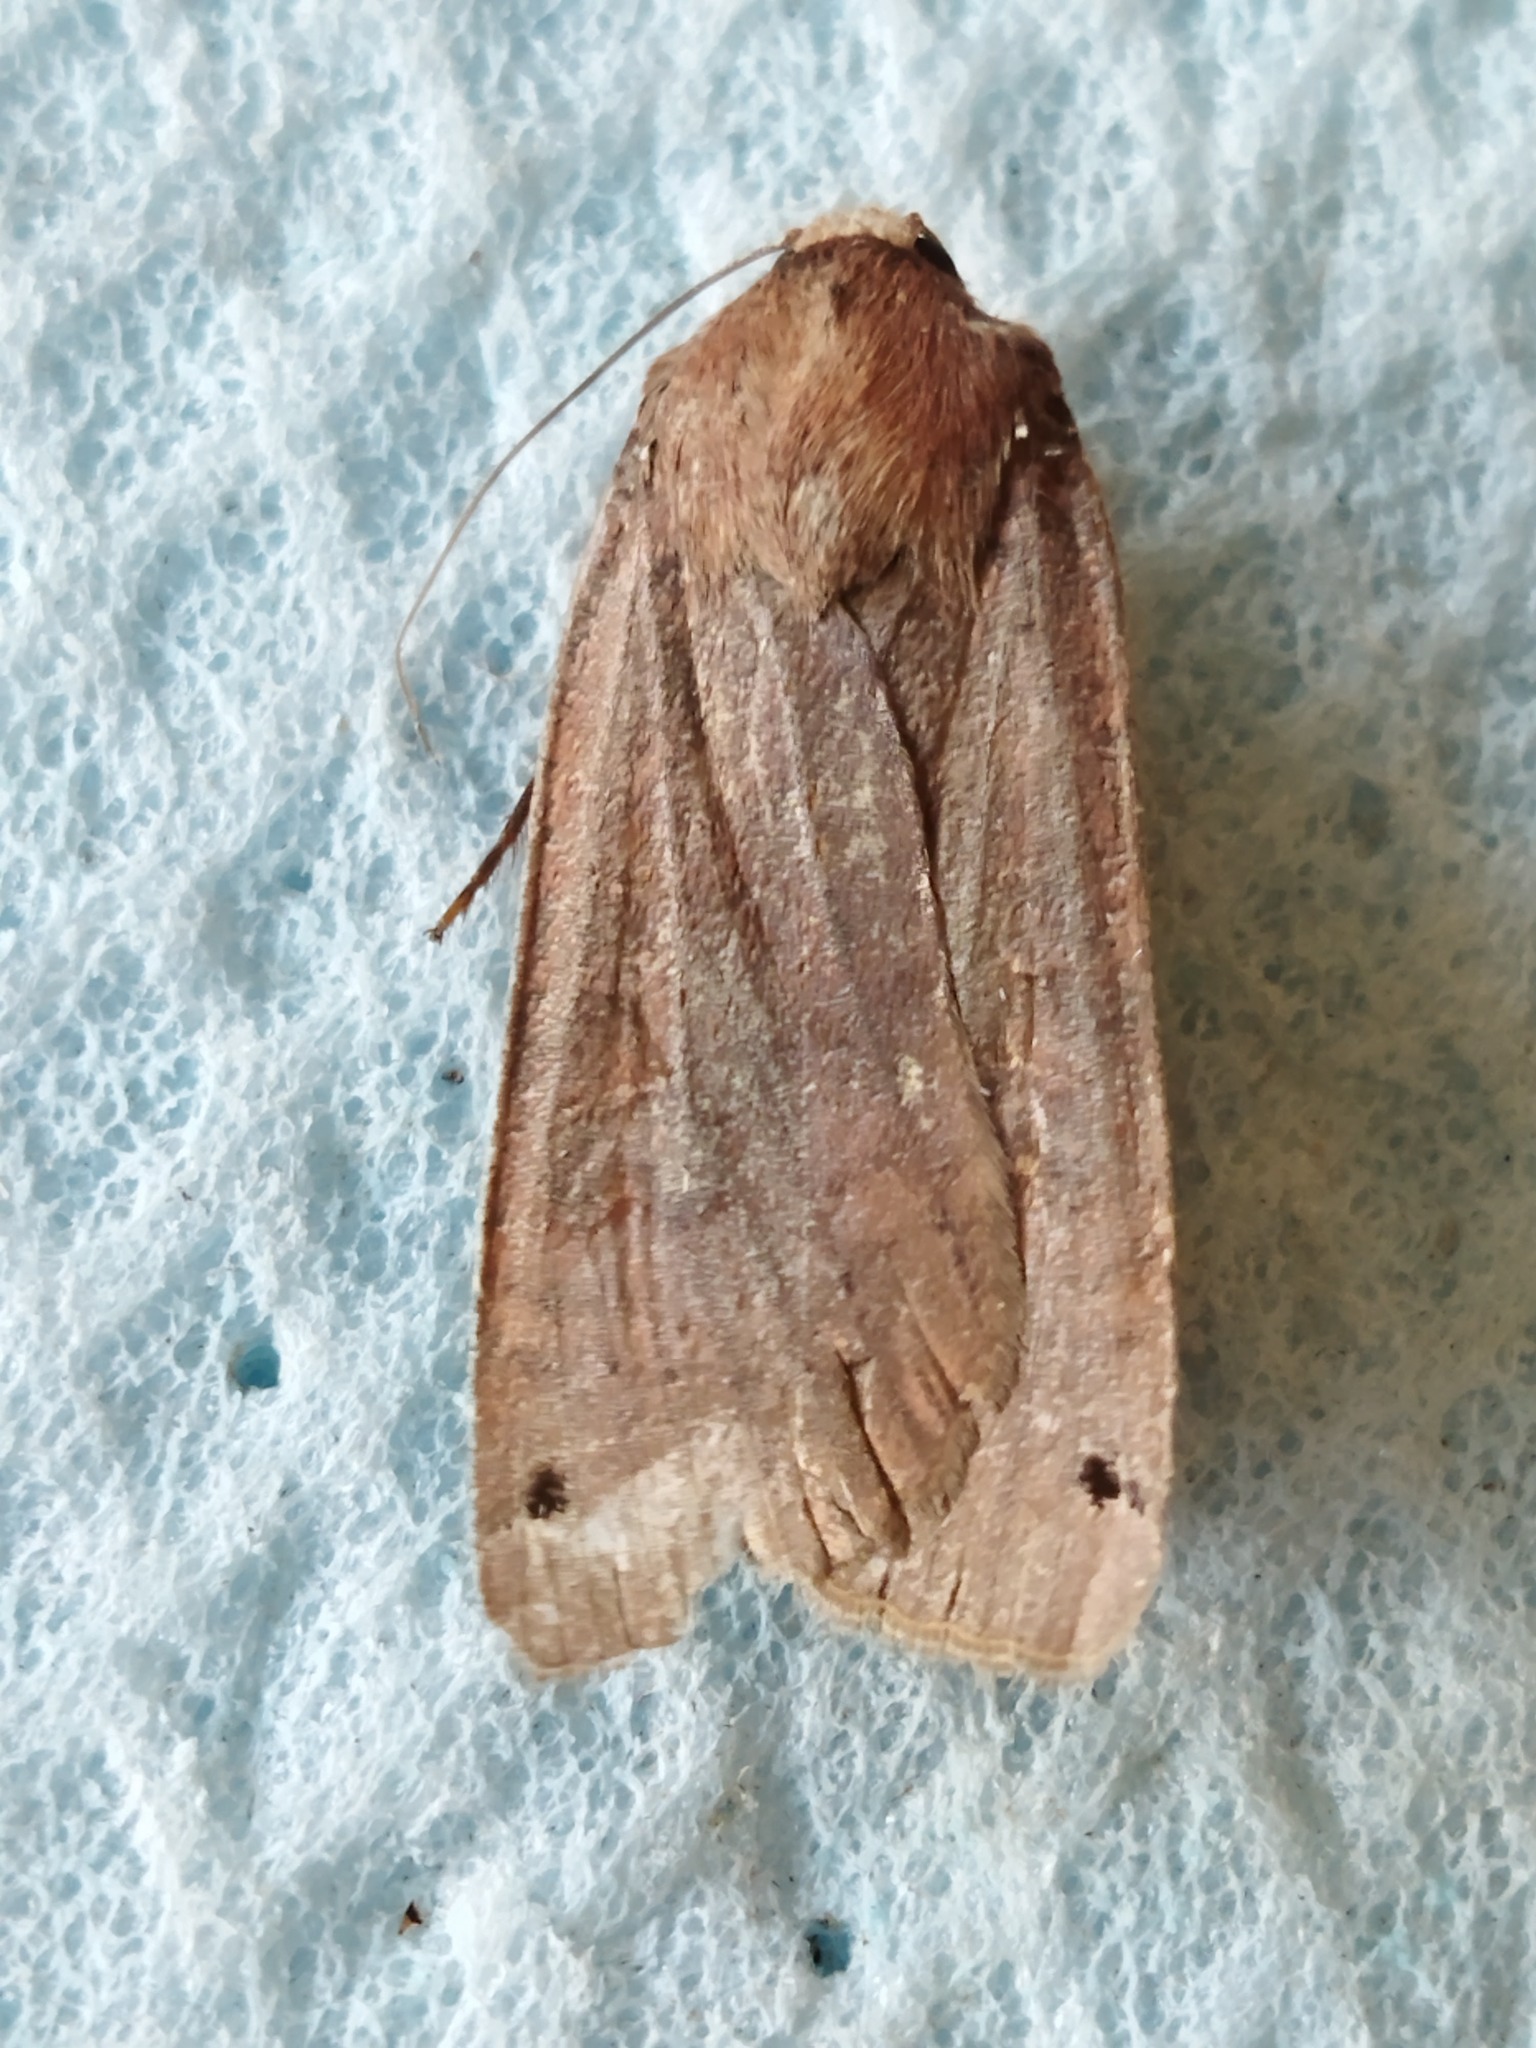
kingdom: Animalia
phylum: Arthropoda
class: Insecta
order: Lepidoptera
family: Noctuidae
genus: Noctua
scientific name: Noctua pronuba
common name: Large yellow underwing
